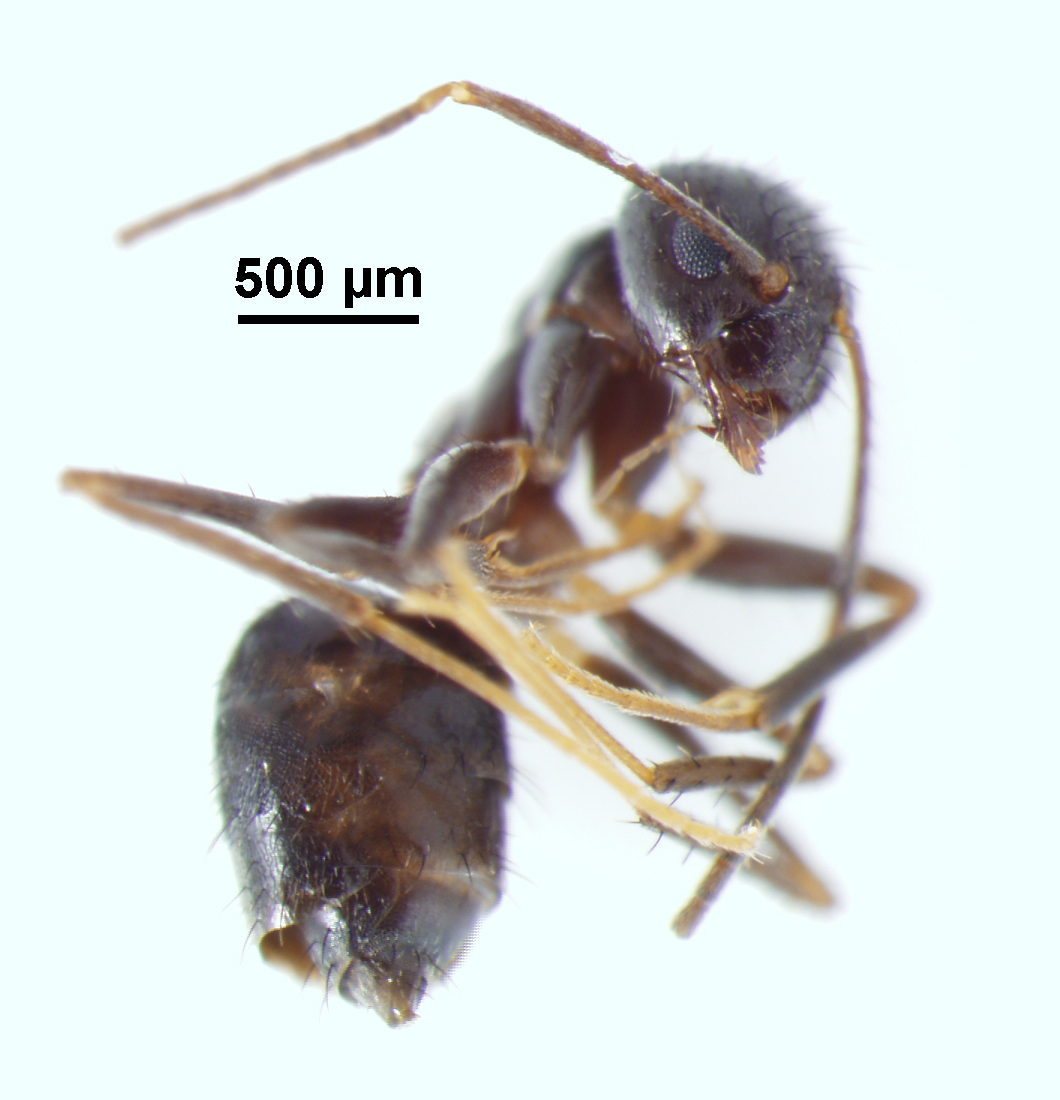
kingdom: Animalia
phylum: Arthropoda
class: Insecta
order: Hymenoptera
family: Formicidae
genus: Paratrechina
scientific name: Paratrechina bourbonica
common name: Ant
